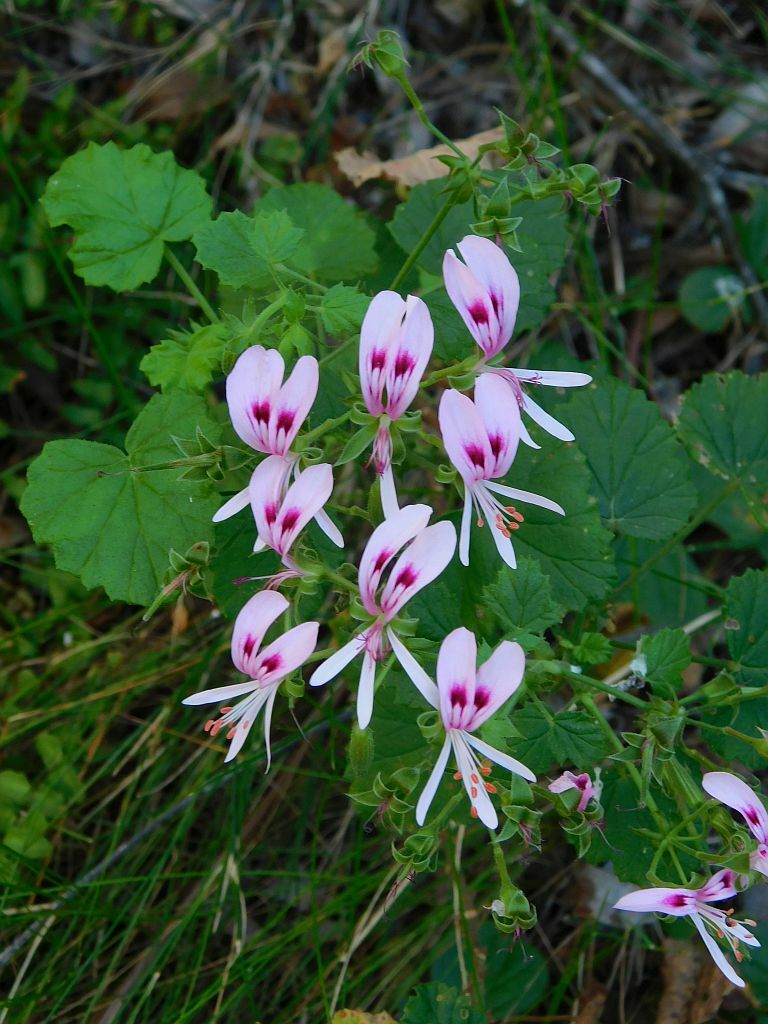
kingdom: Plantae
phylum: Tracheophyta
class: Magnoliopsida
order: Geraniales
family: Geraniaceae
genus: Pelargonium
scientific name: Pelargonium greytonense
